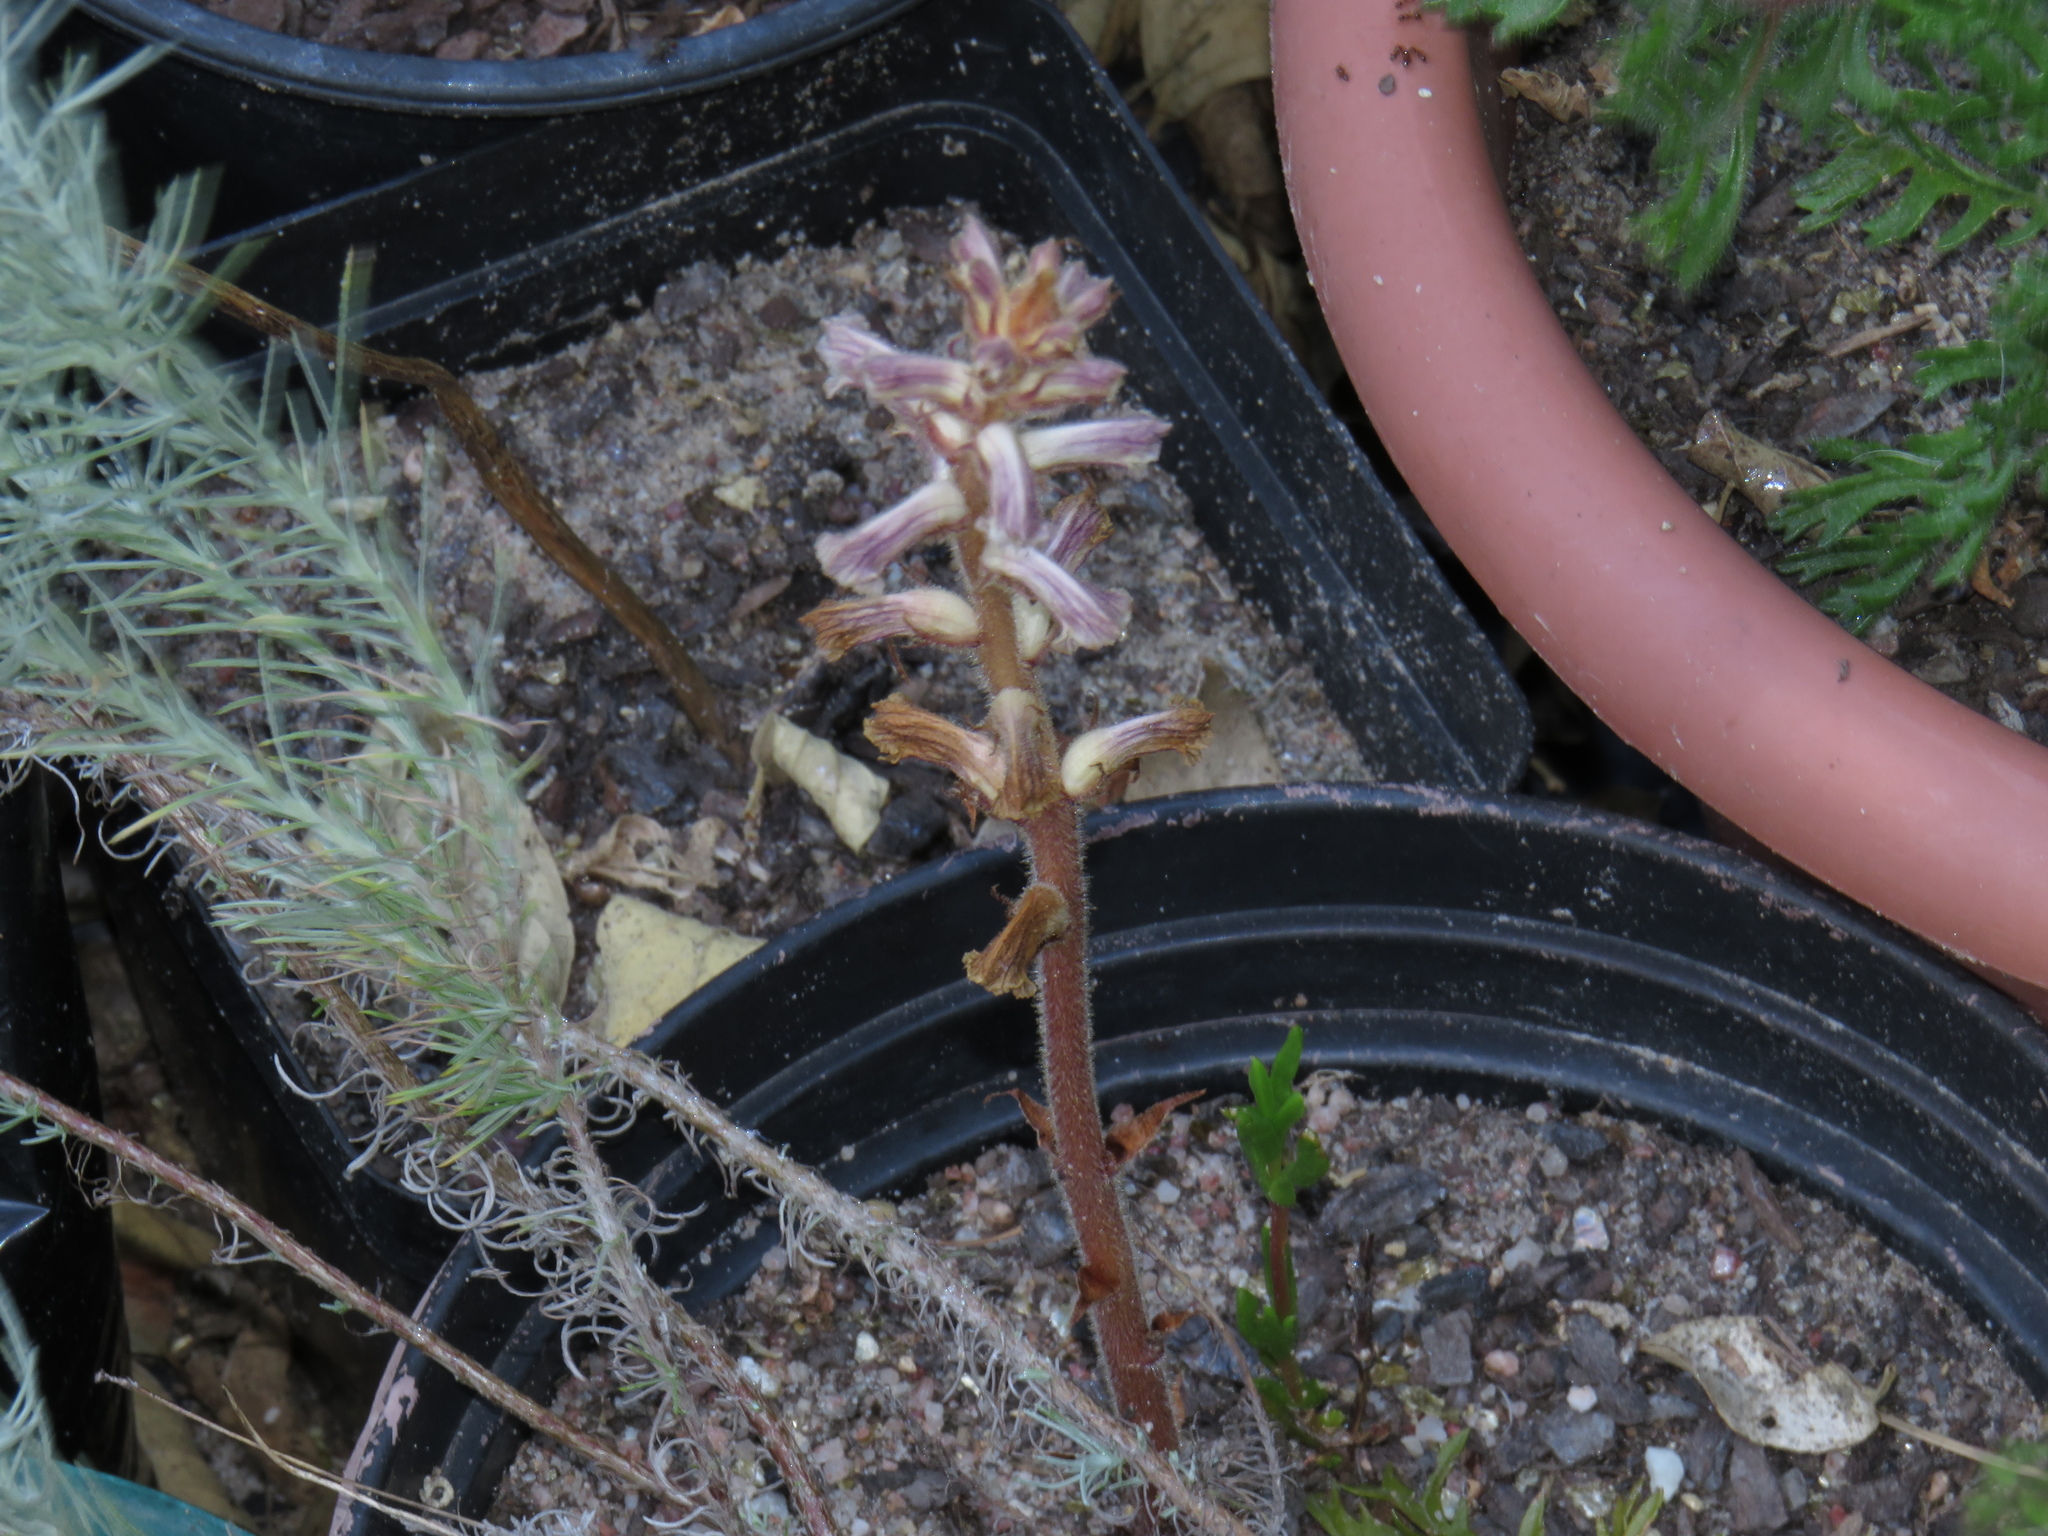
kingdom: Plantae
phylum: Tracheophyta
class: Magnoliopsida
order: Lamiales
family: Orobanchaceae
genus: Orobanche
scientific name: Orobanche minor
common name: Common broomrape
